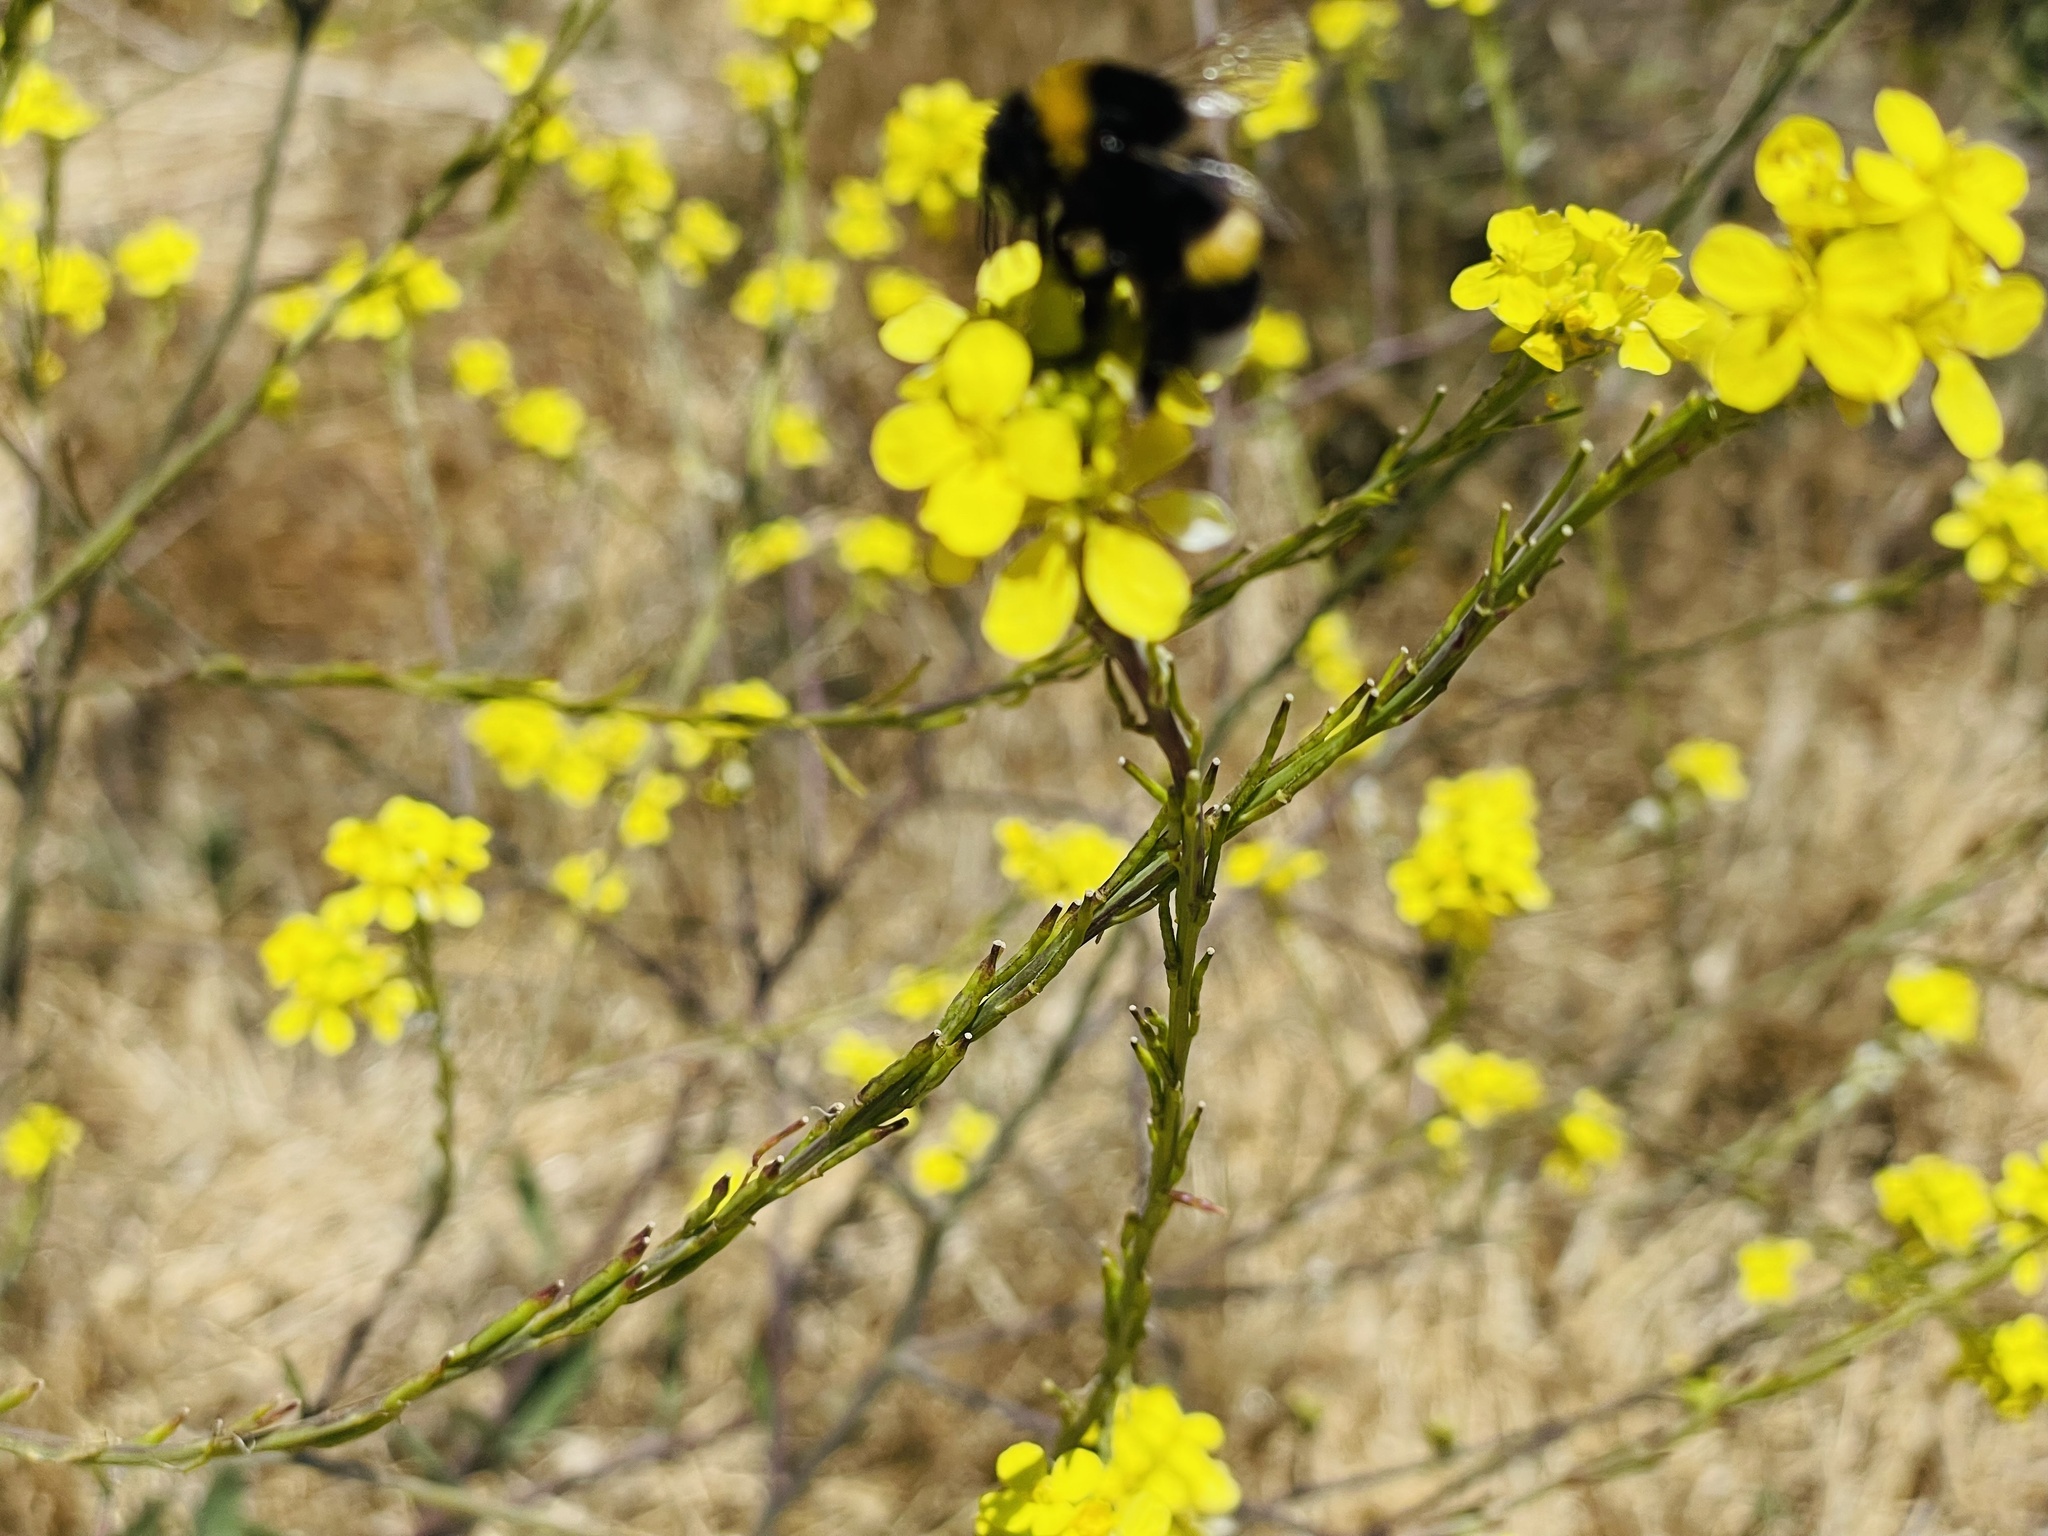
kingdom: Animalia
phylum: Arthropoda
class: Insecta
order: Hymenoptera
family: Apidae
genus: Bombus
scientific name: Bombus terrestris
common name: Buff-tailed bumblebee
